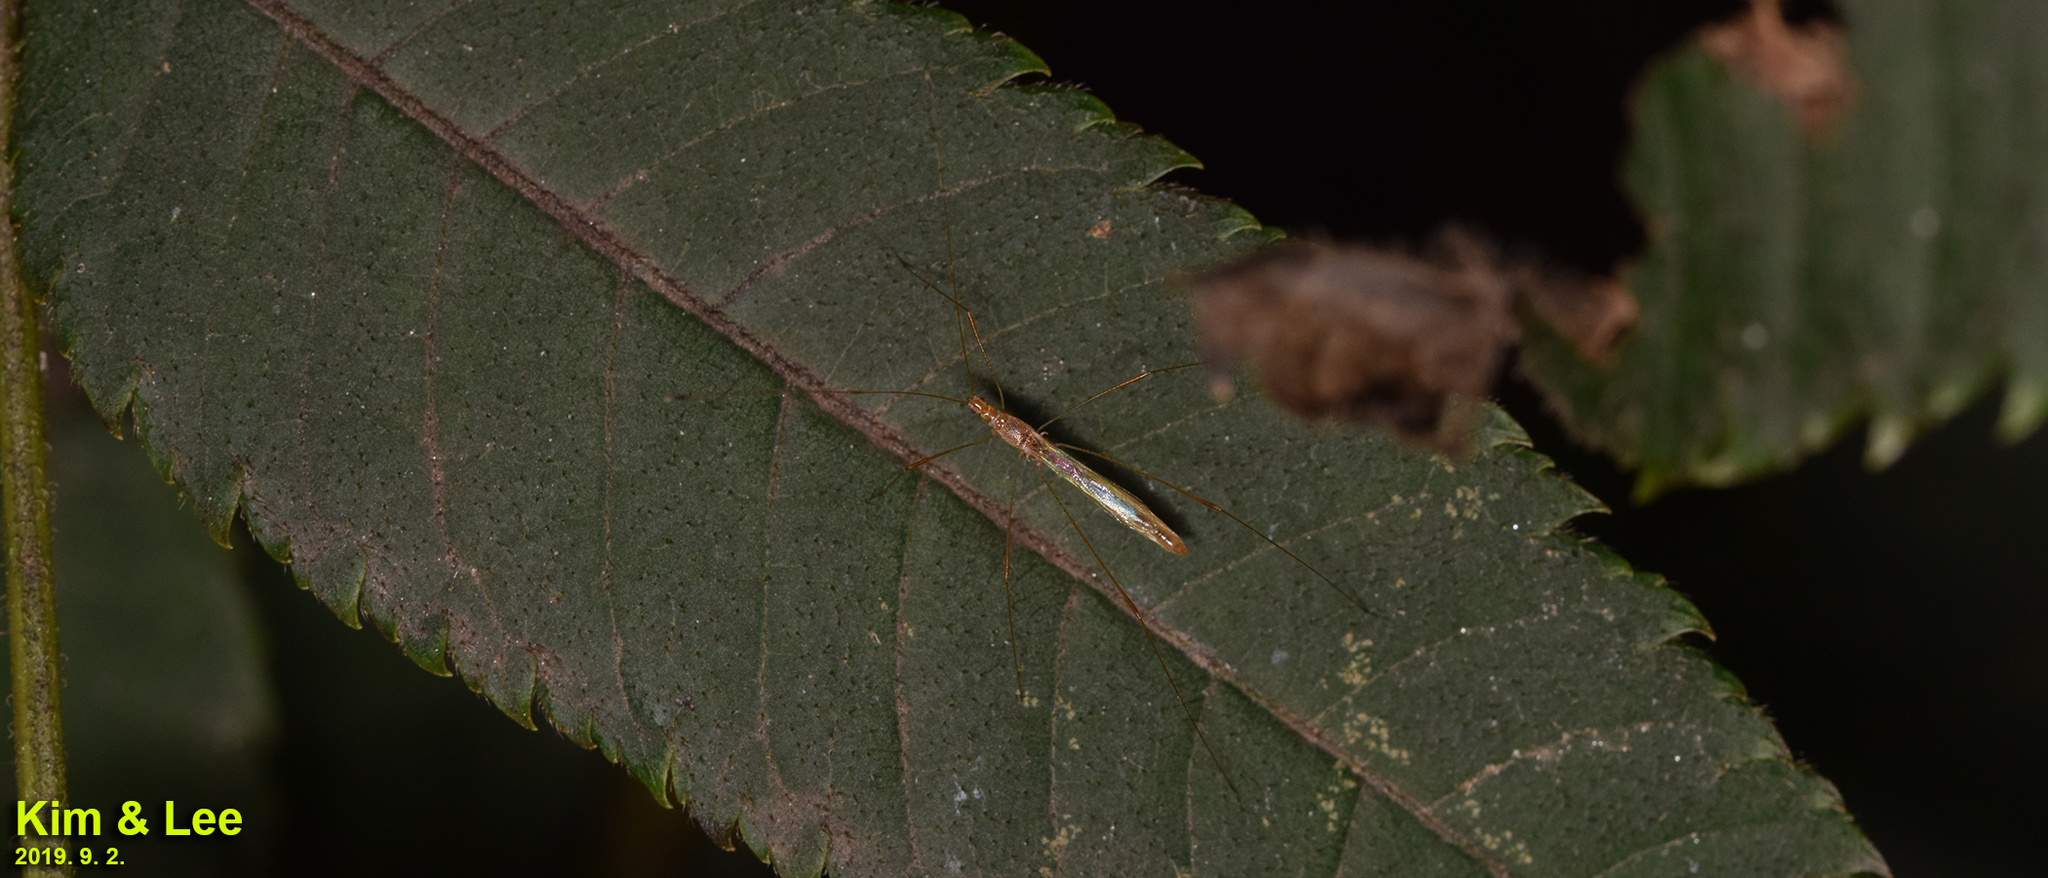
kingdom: Animalia
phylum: Arthropoda
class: Insecta
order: Hemiptera
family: Berytidae
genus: Yemma
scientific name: Yemma exilis
